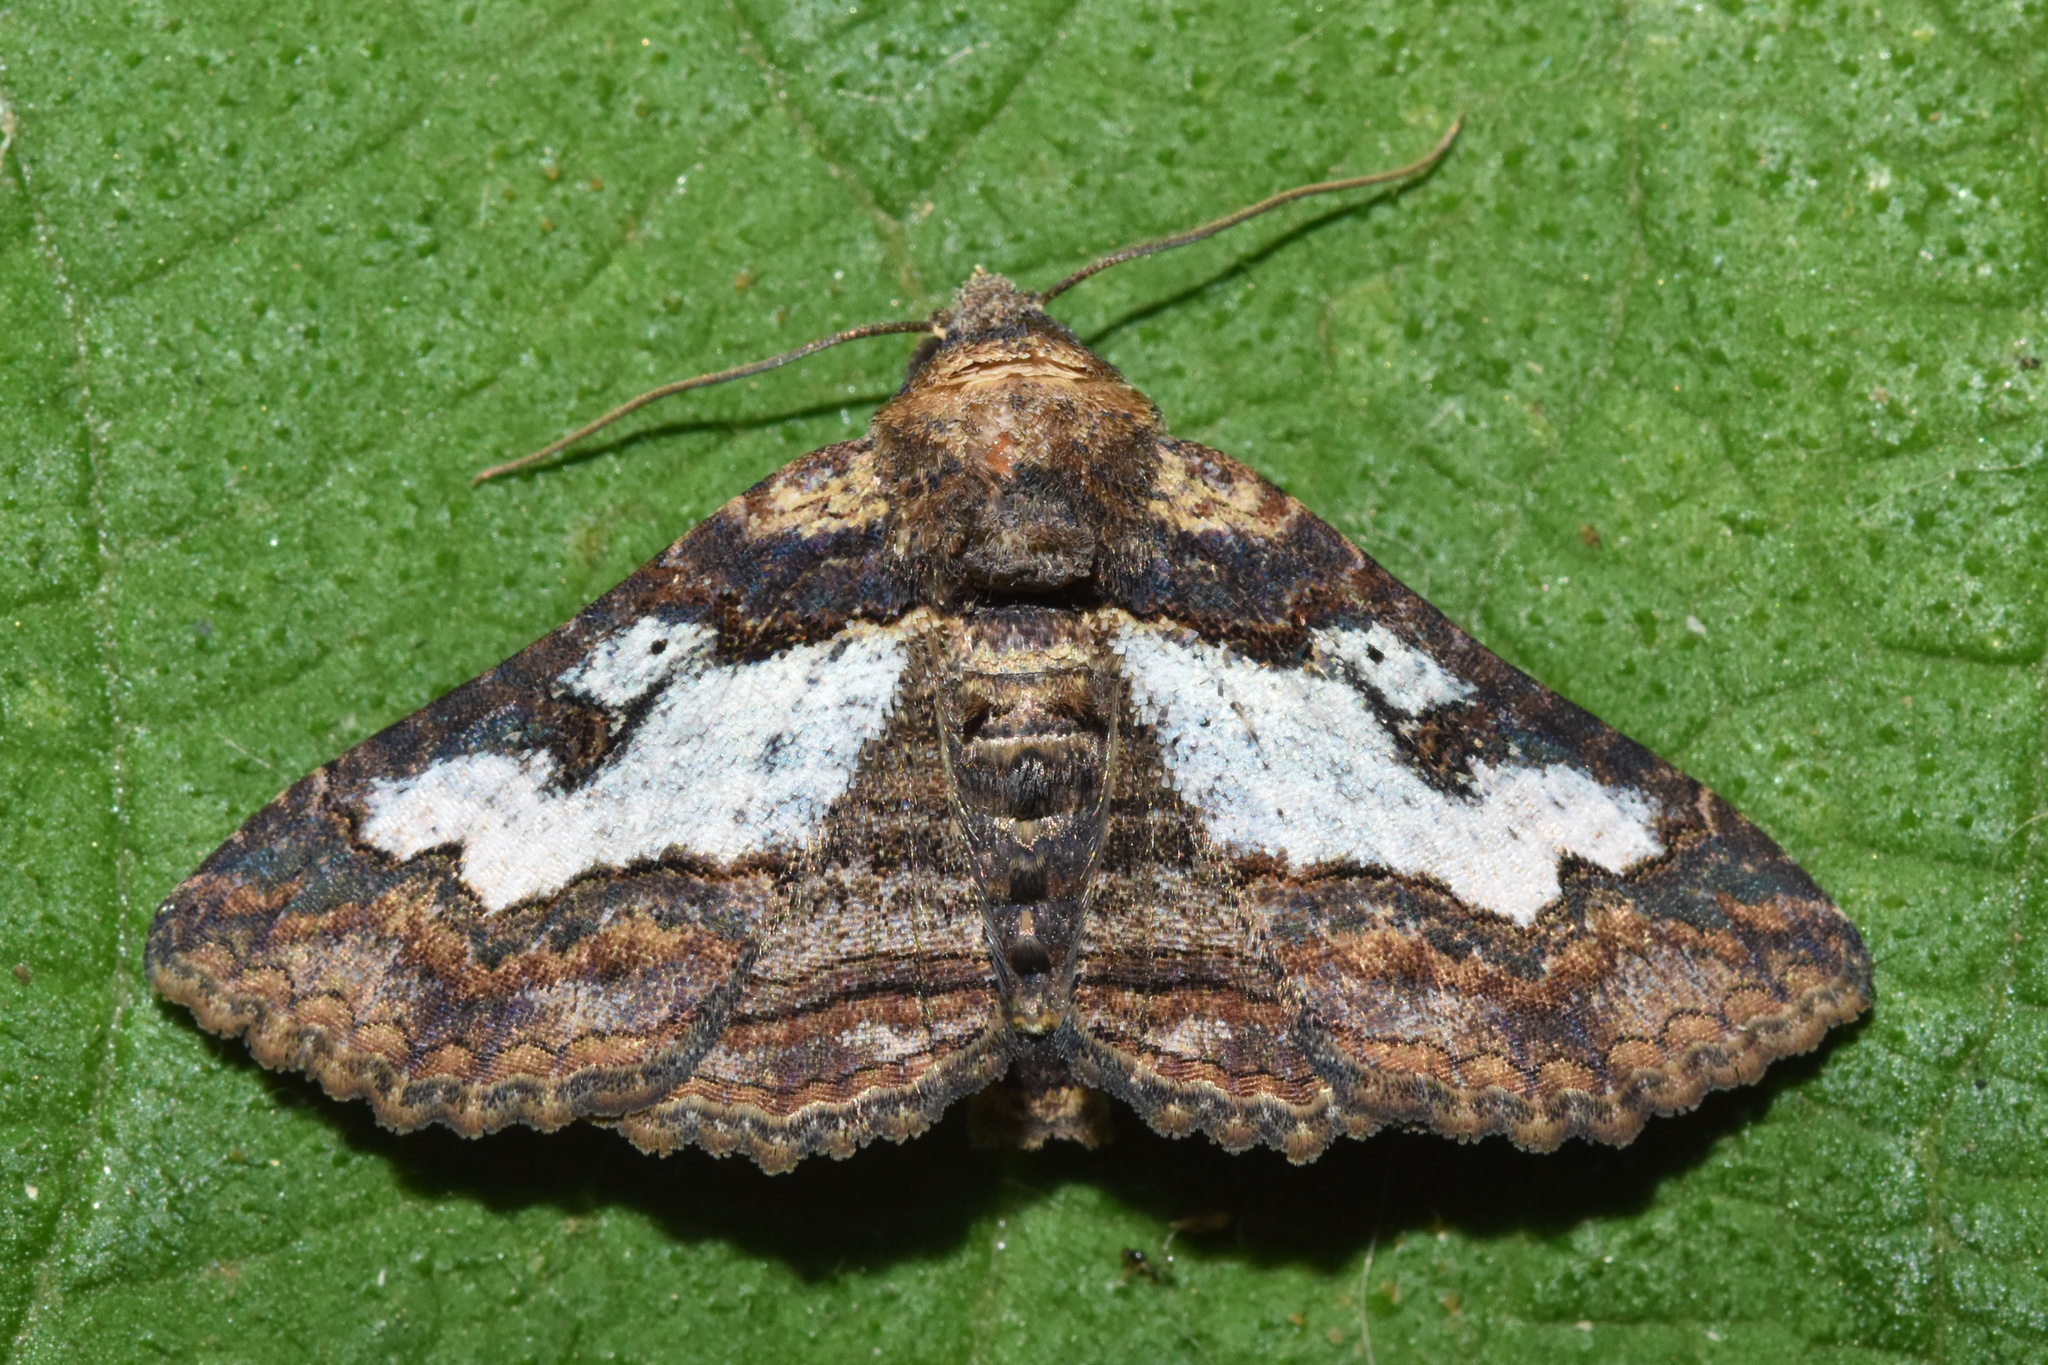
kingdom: Animalia
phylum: Arthropoda
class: Insecta
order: Lepidoptera
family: Erebidae
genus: Pericyma
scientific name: Pericyma mendax
